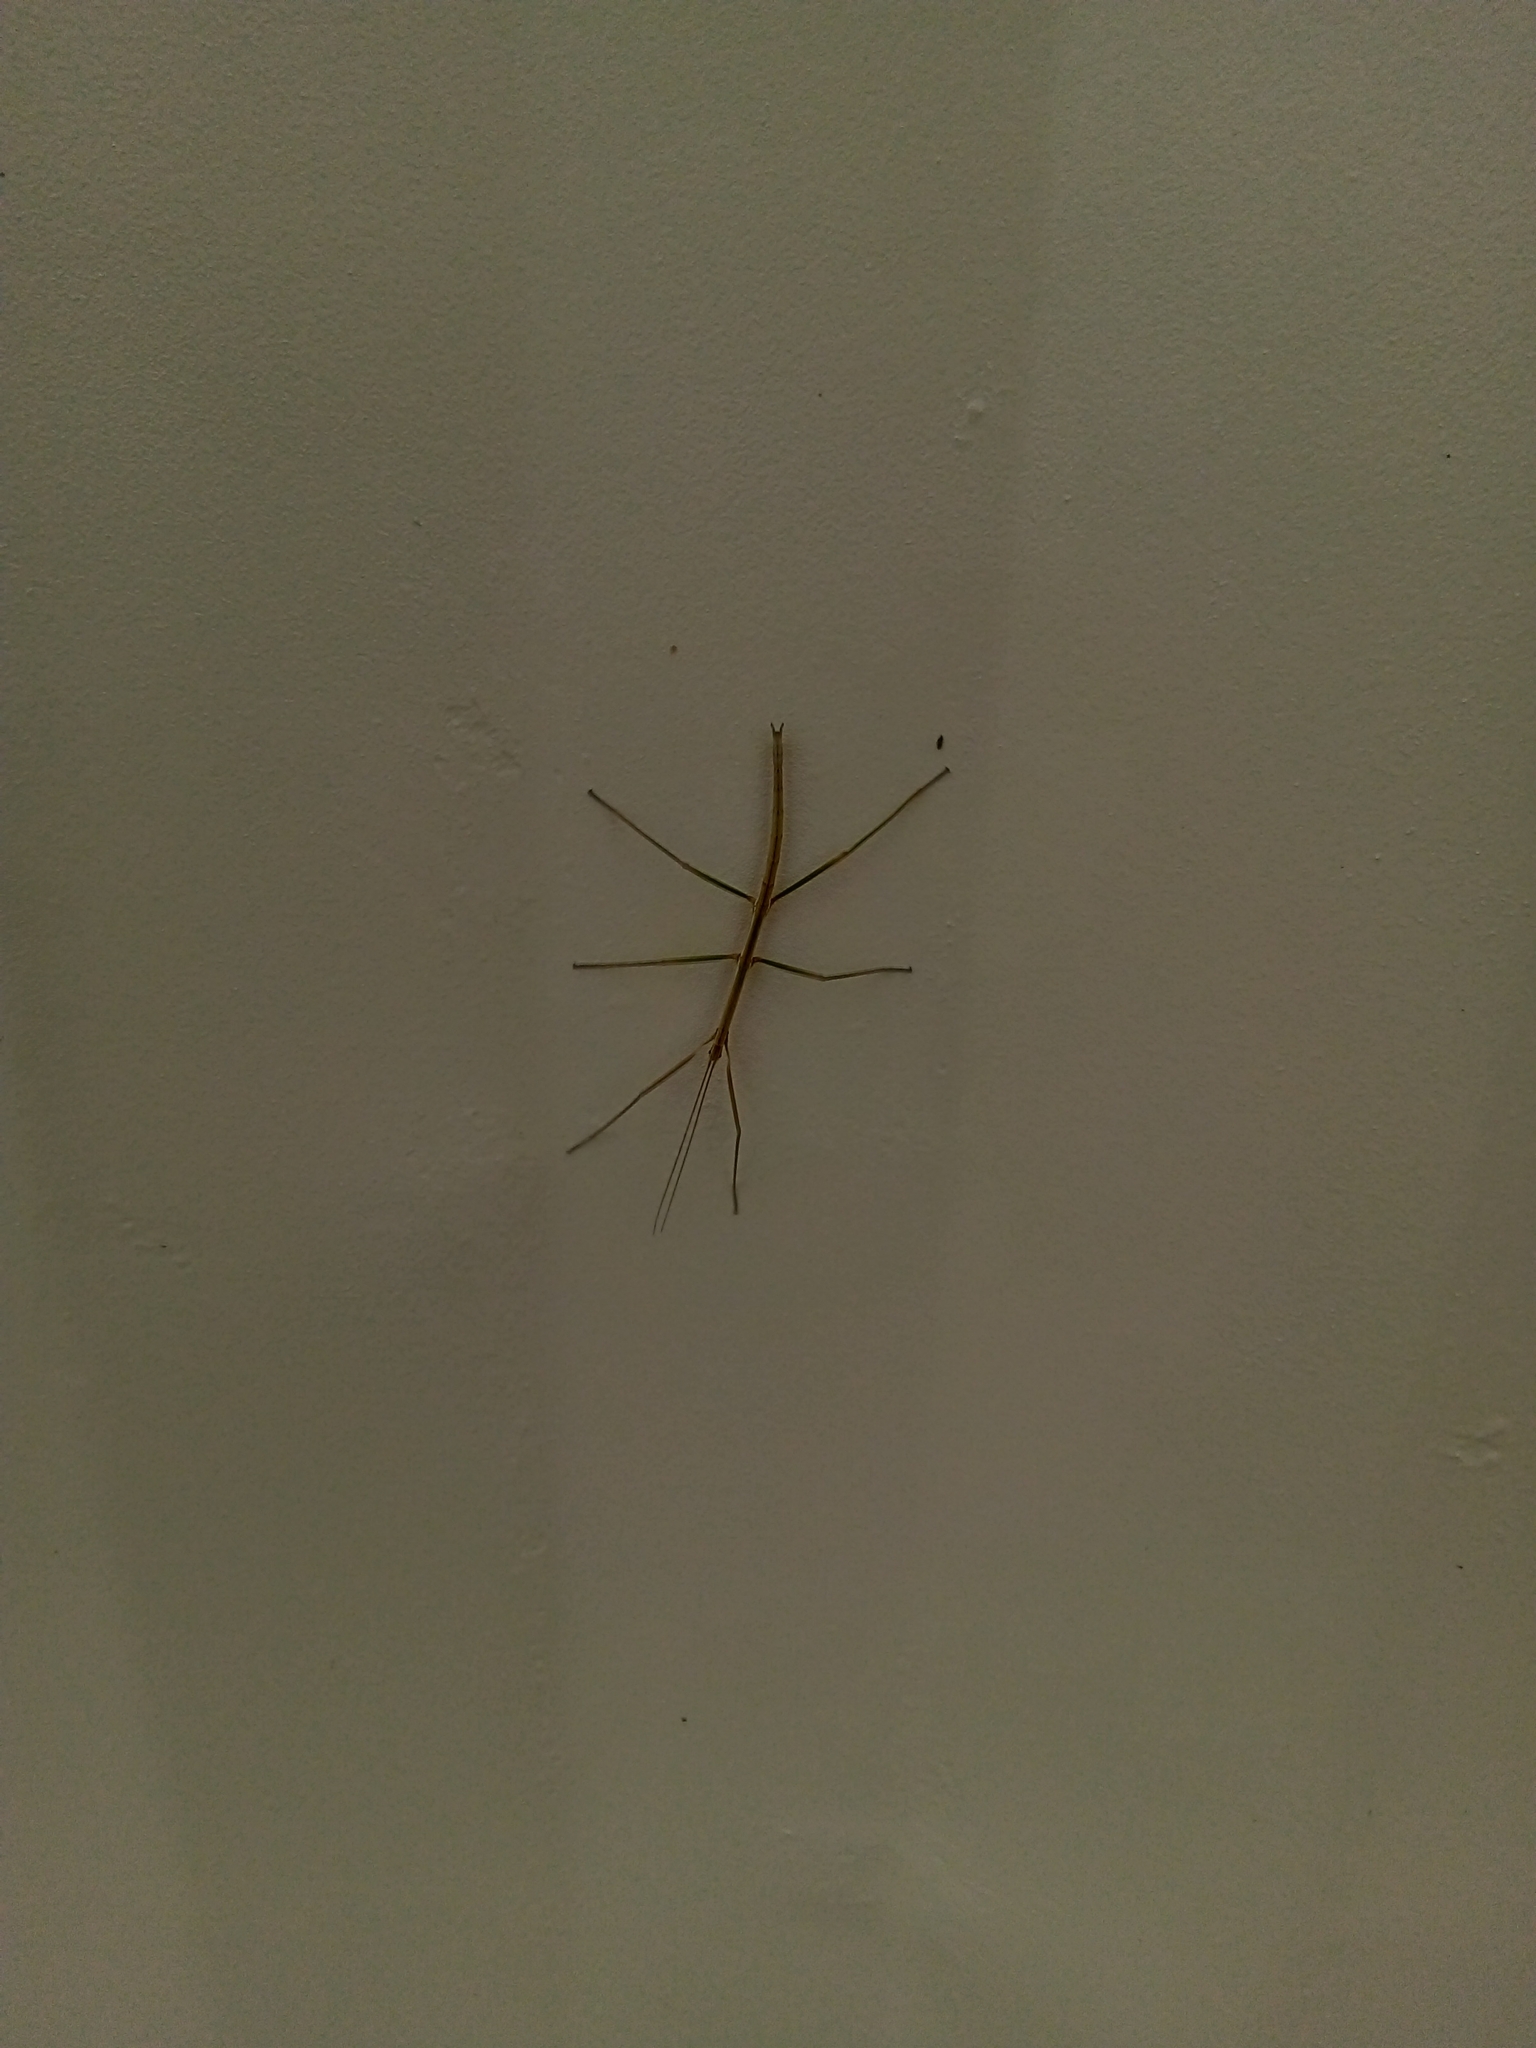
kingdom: Animalia
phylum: Arthropoda
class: Insecta
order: Phasmida
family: Diapheromeridae
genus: Diapheromera
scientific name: Diapheromera femorata
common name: Common american walkingstick
